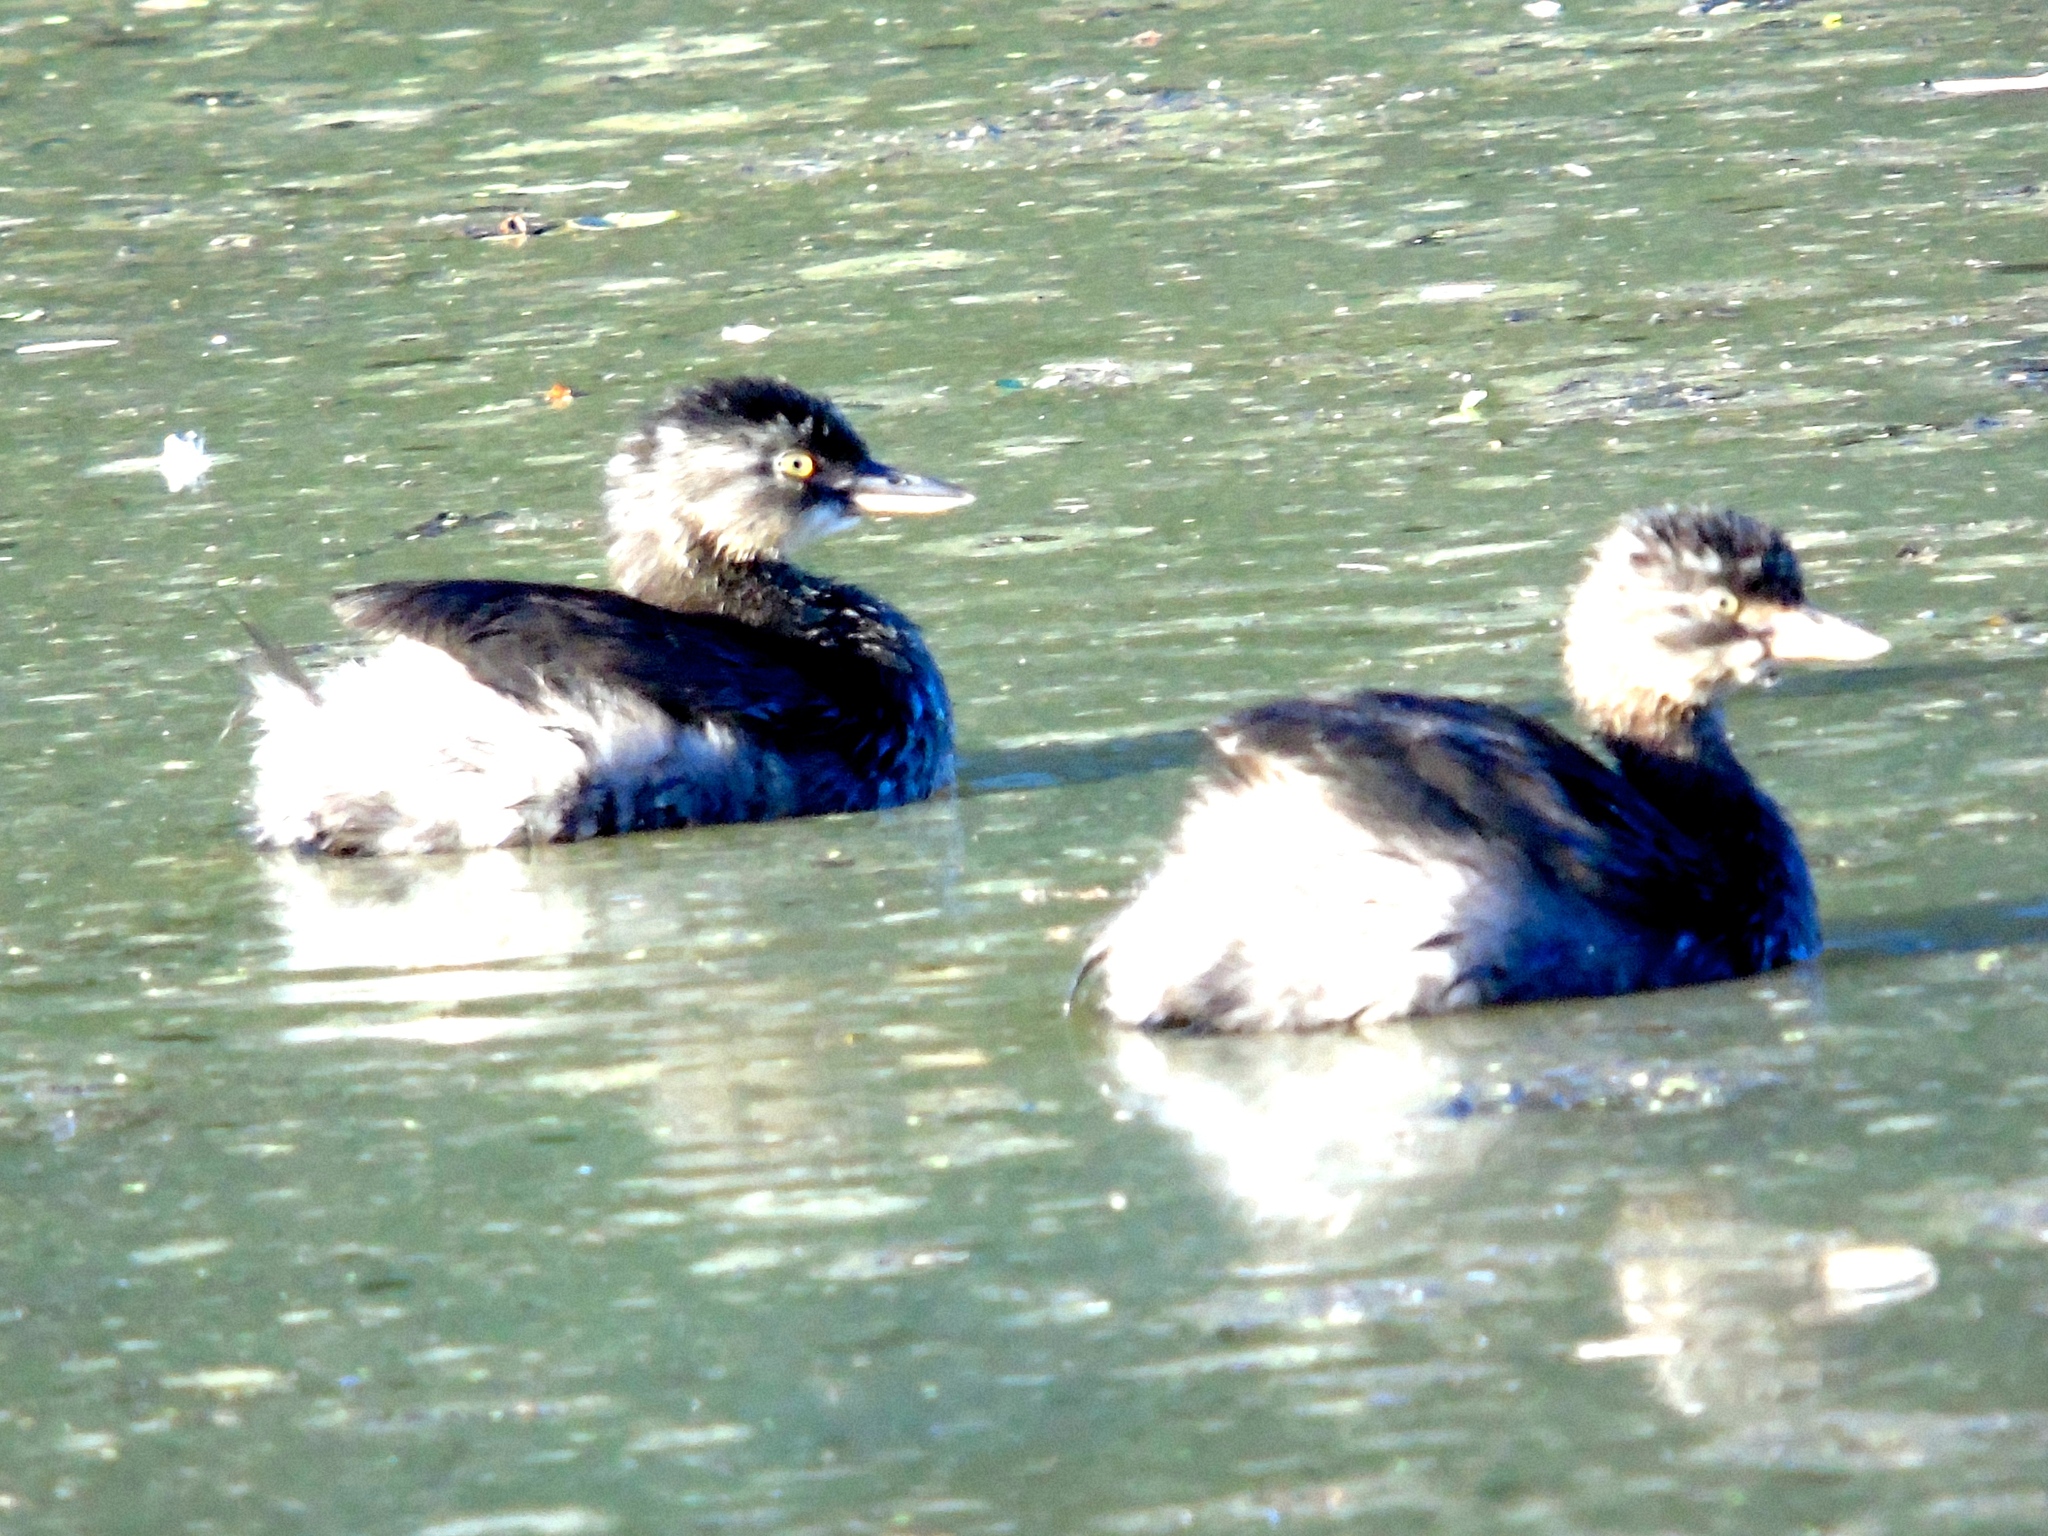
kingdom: Animalia
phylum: Chordata
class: Aves
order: Podicipediformes
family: Podicipedidae
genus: Tachybaptus
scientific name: Tachybaptus dominicus
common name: Least grebe
